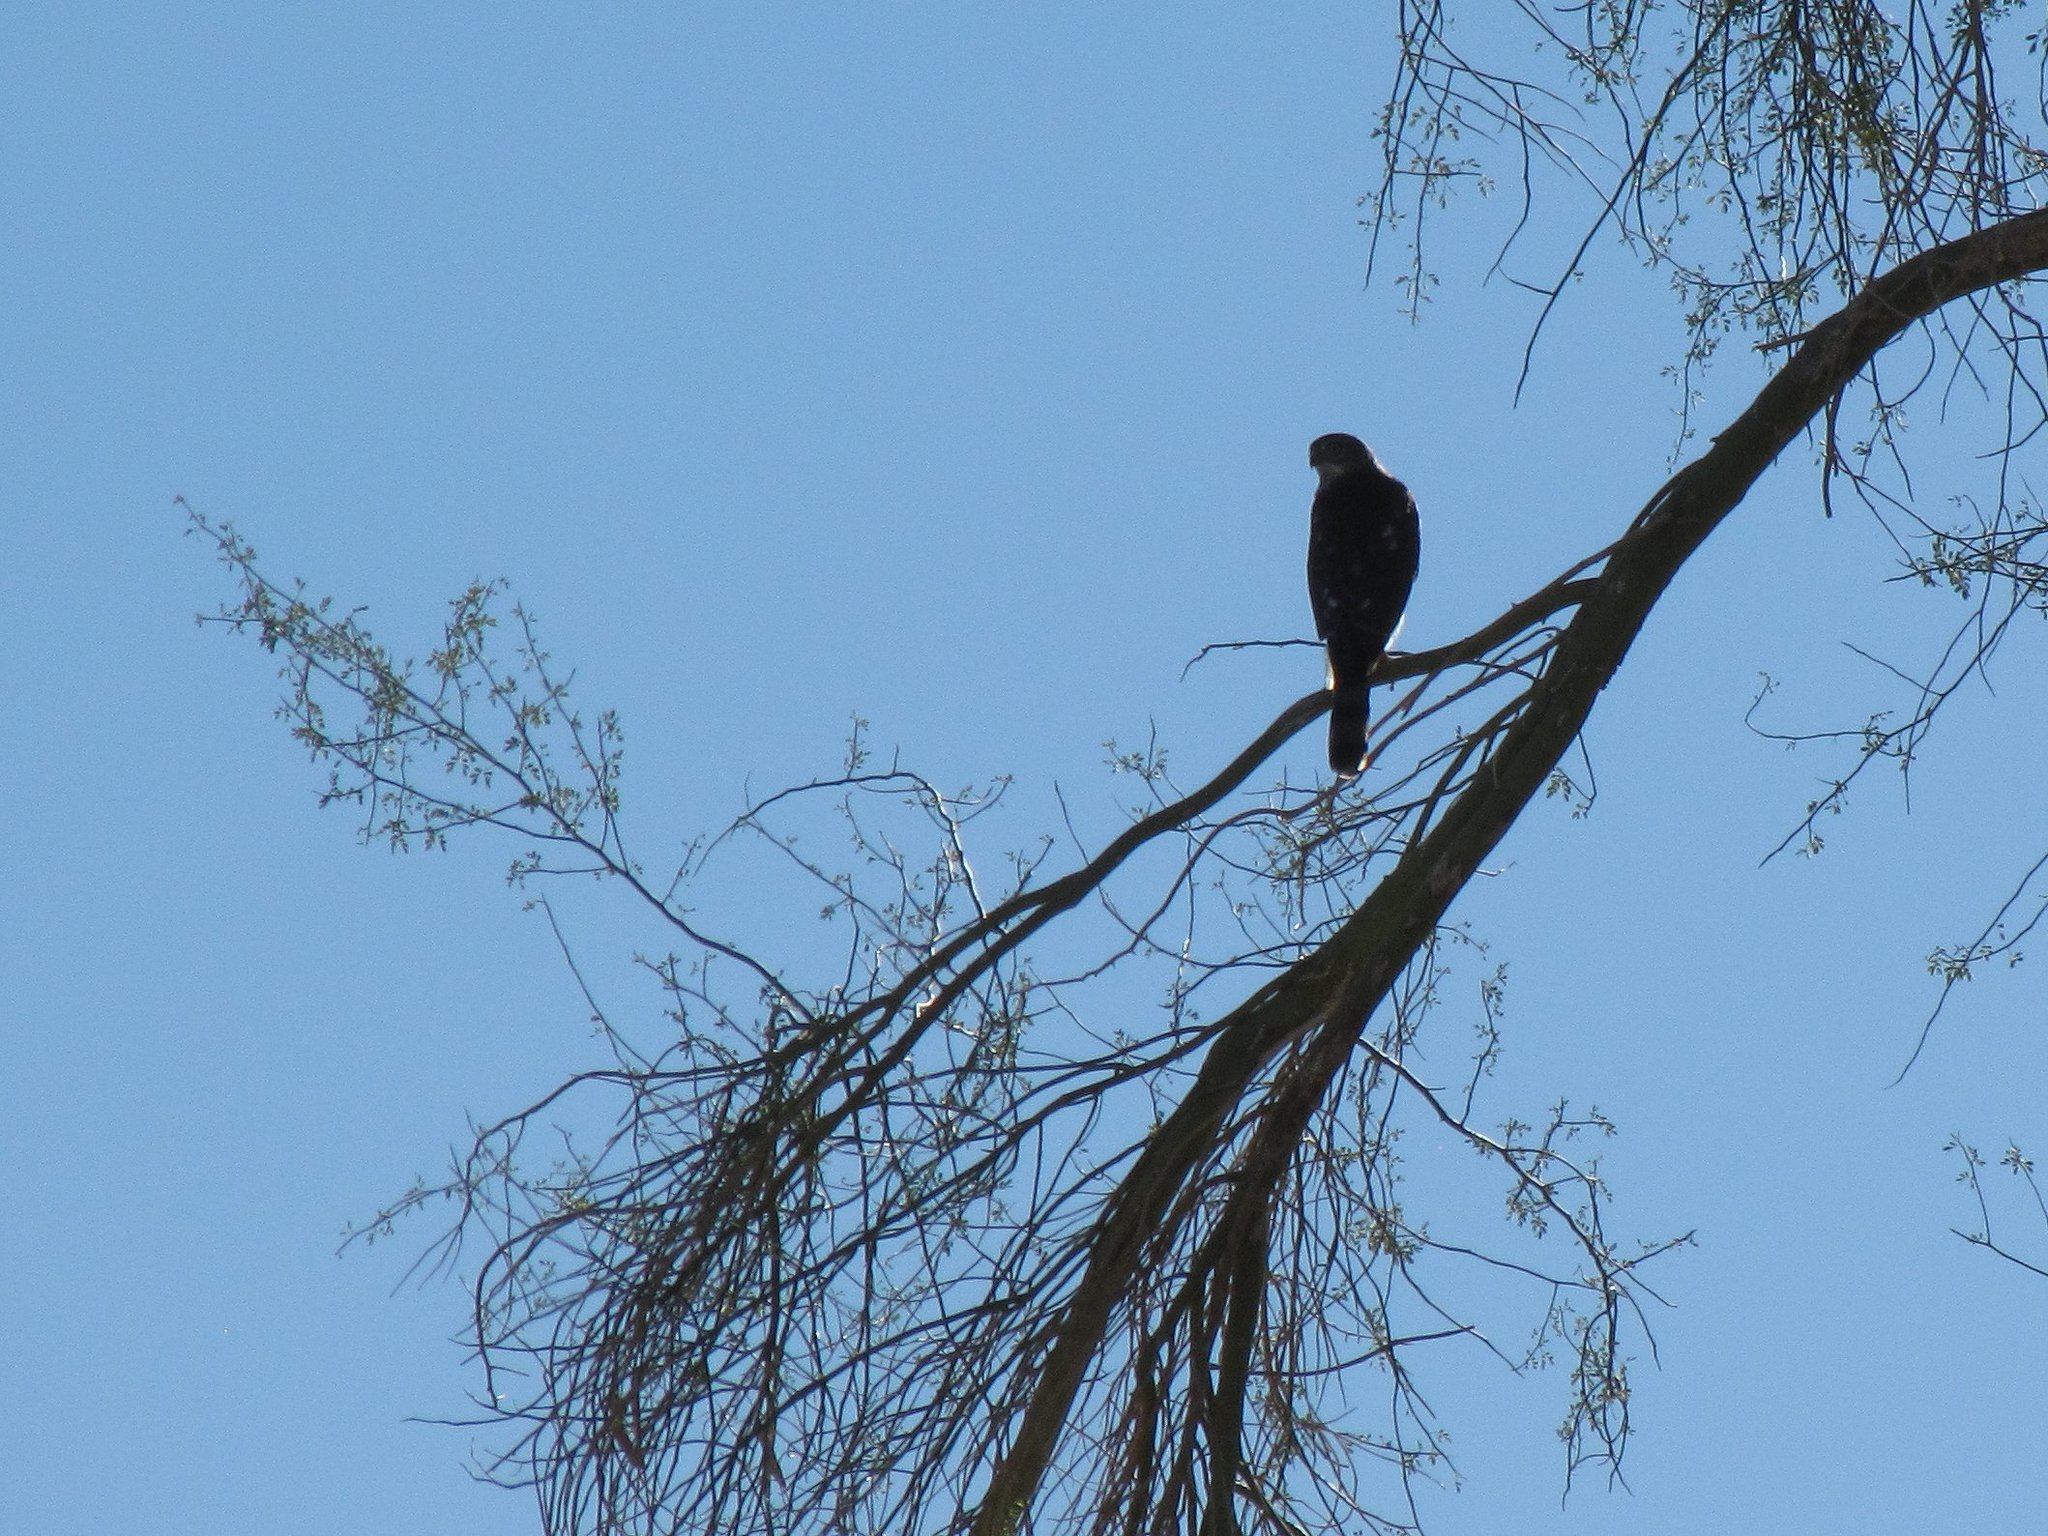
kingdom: Animalia
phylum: Chordata
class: Aves
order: Accipitriformes
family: Accipitridae
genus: Accipiter
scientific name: Accipiter striatus
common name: Sharp-shinned hawk
